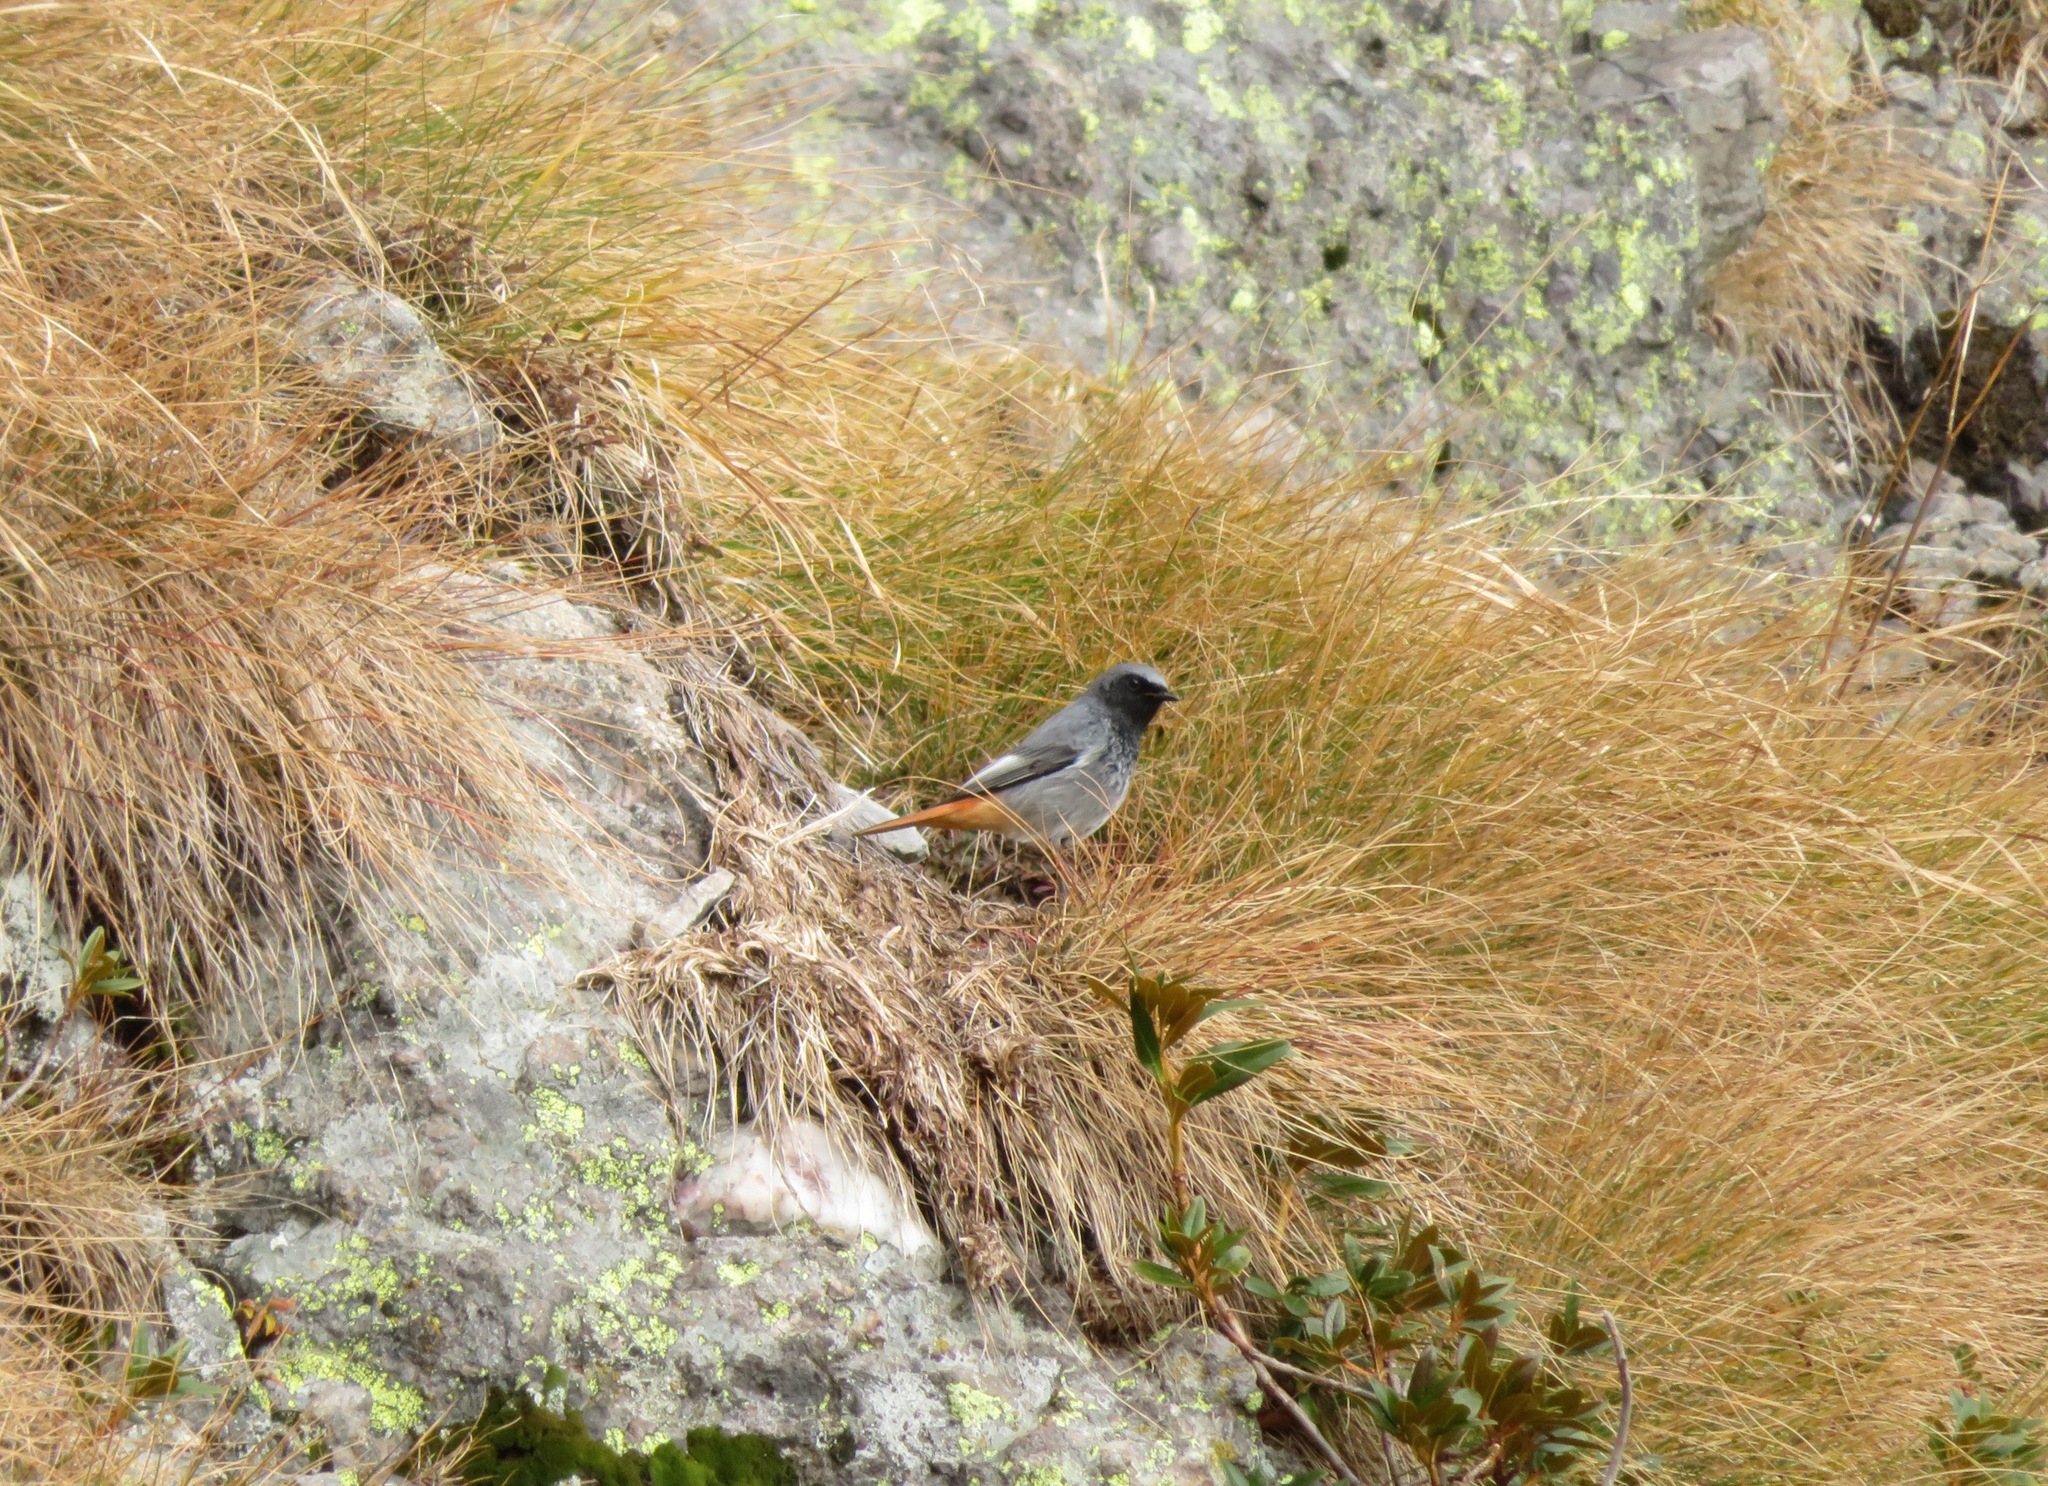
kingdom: Animalia
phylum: Chordata
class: Aves
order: Passeriformes
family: Muscicapidae
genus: Phoenicurus
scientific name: Phoenicurus ochruros
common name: Black redstart
